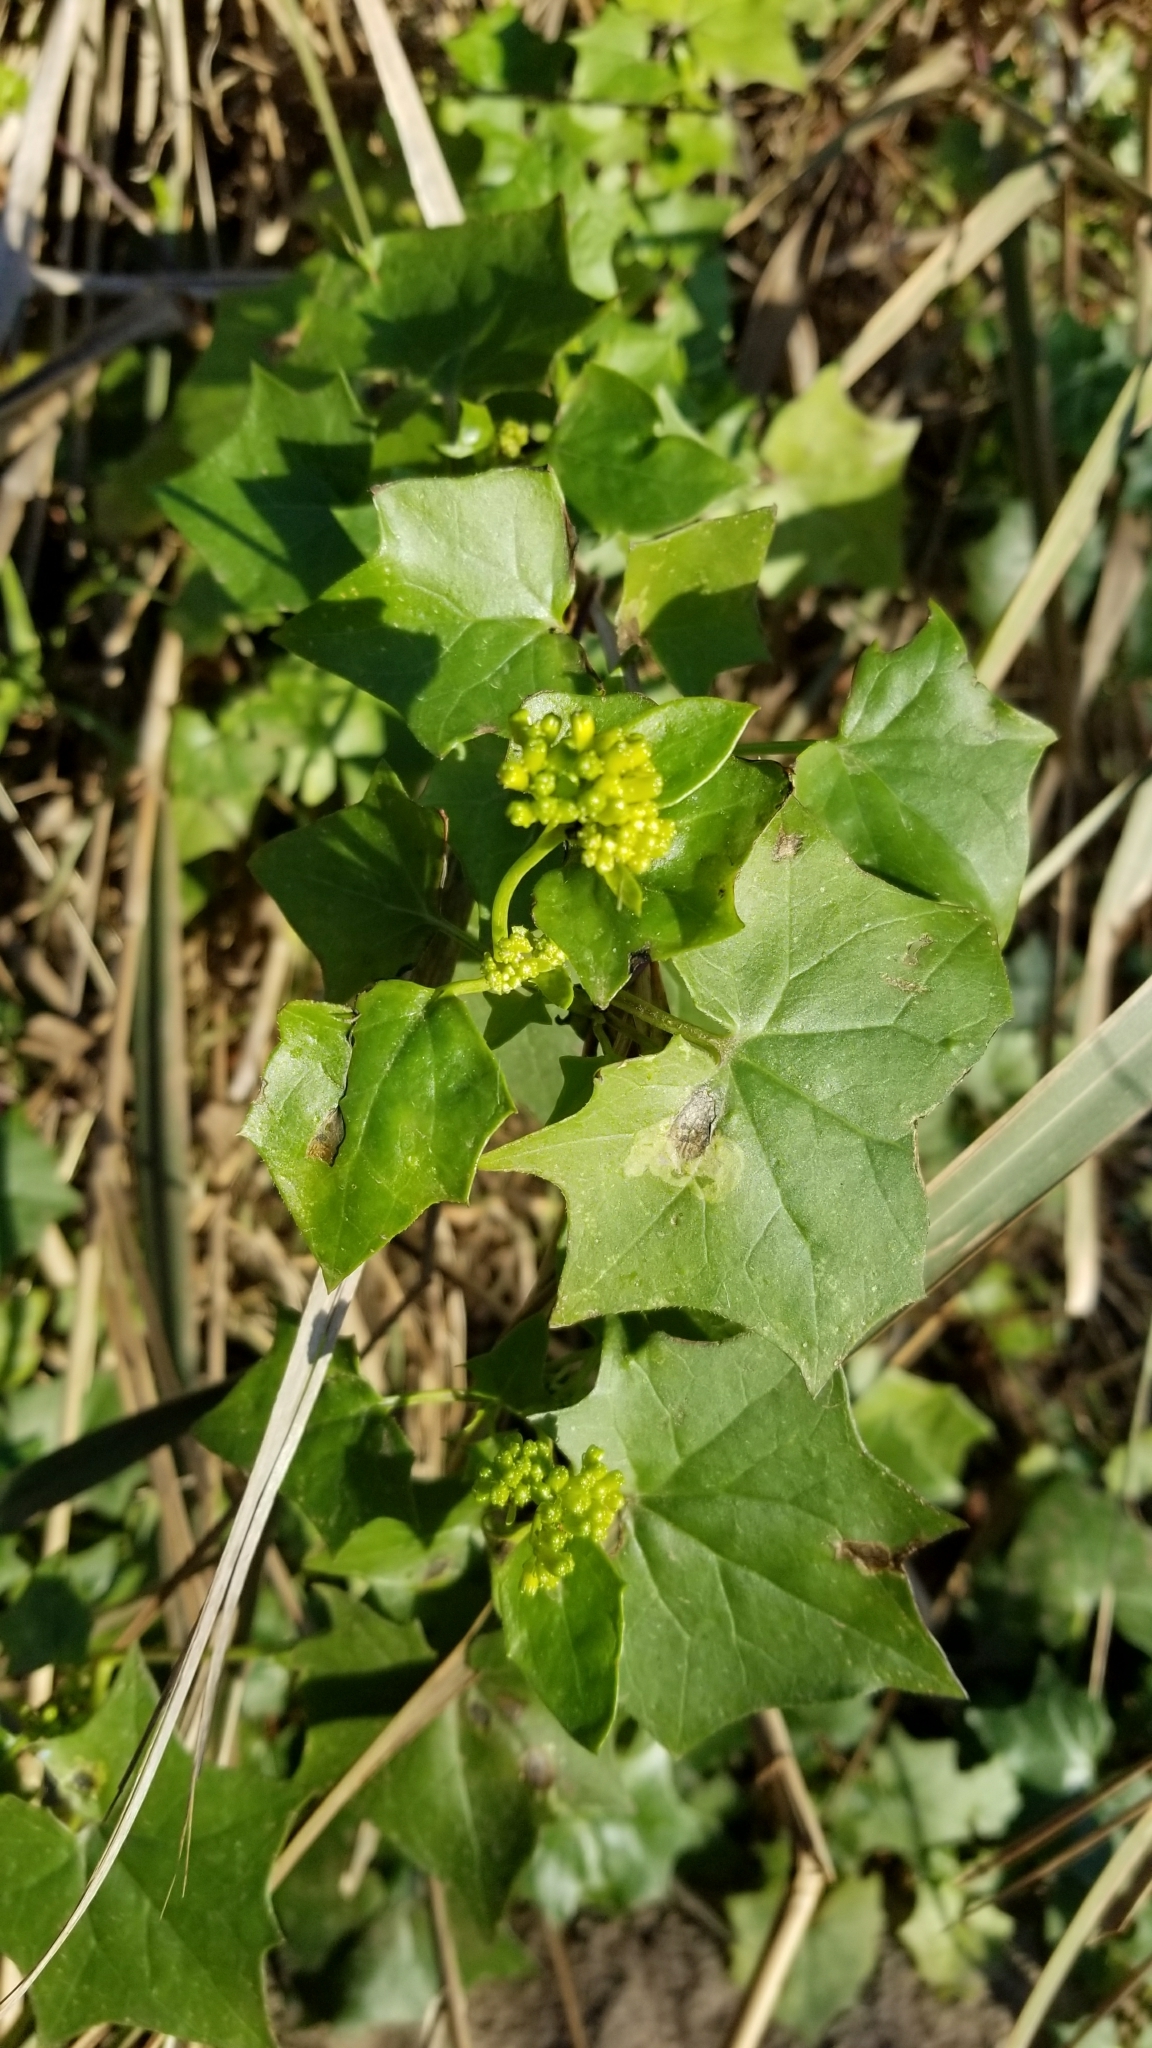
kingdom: Plantae
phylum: Tracheophyta
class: Magnoliopsida
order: Asterales
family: Asteraceae
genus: Delairea
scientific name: Delairea odorata
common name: Cape-ivy
